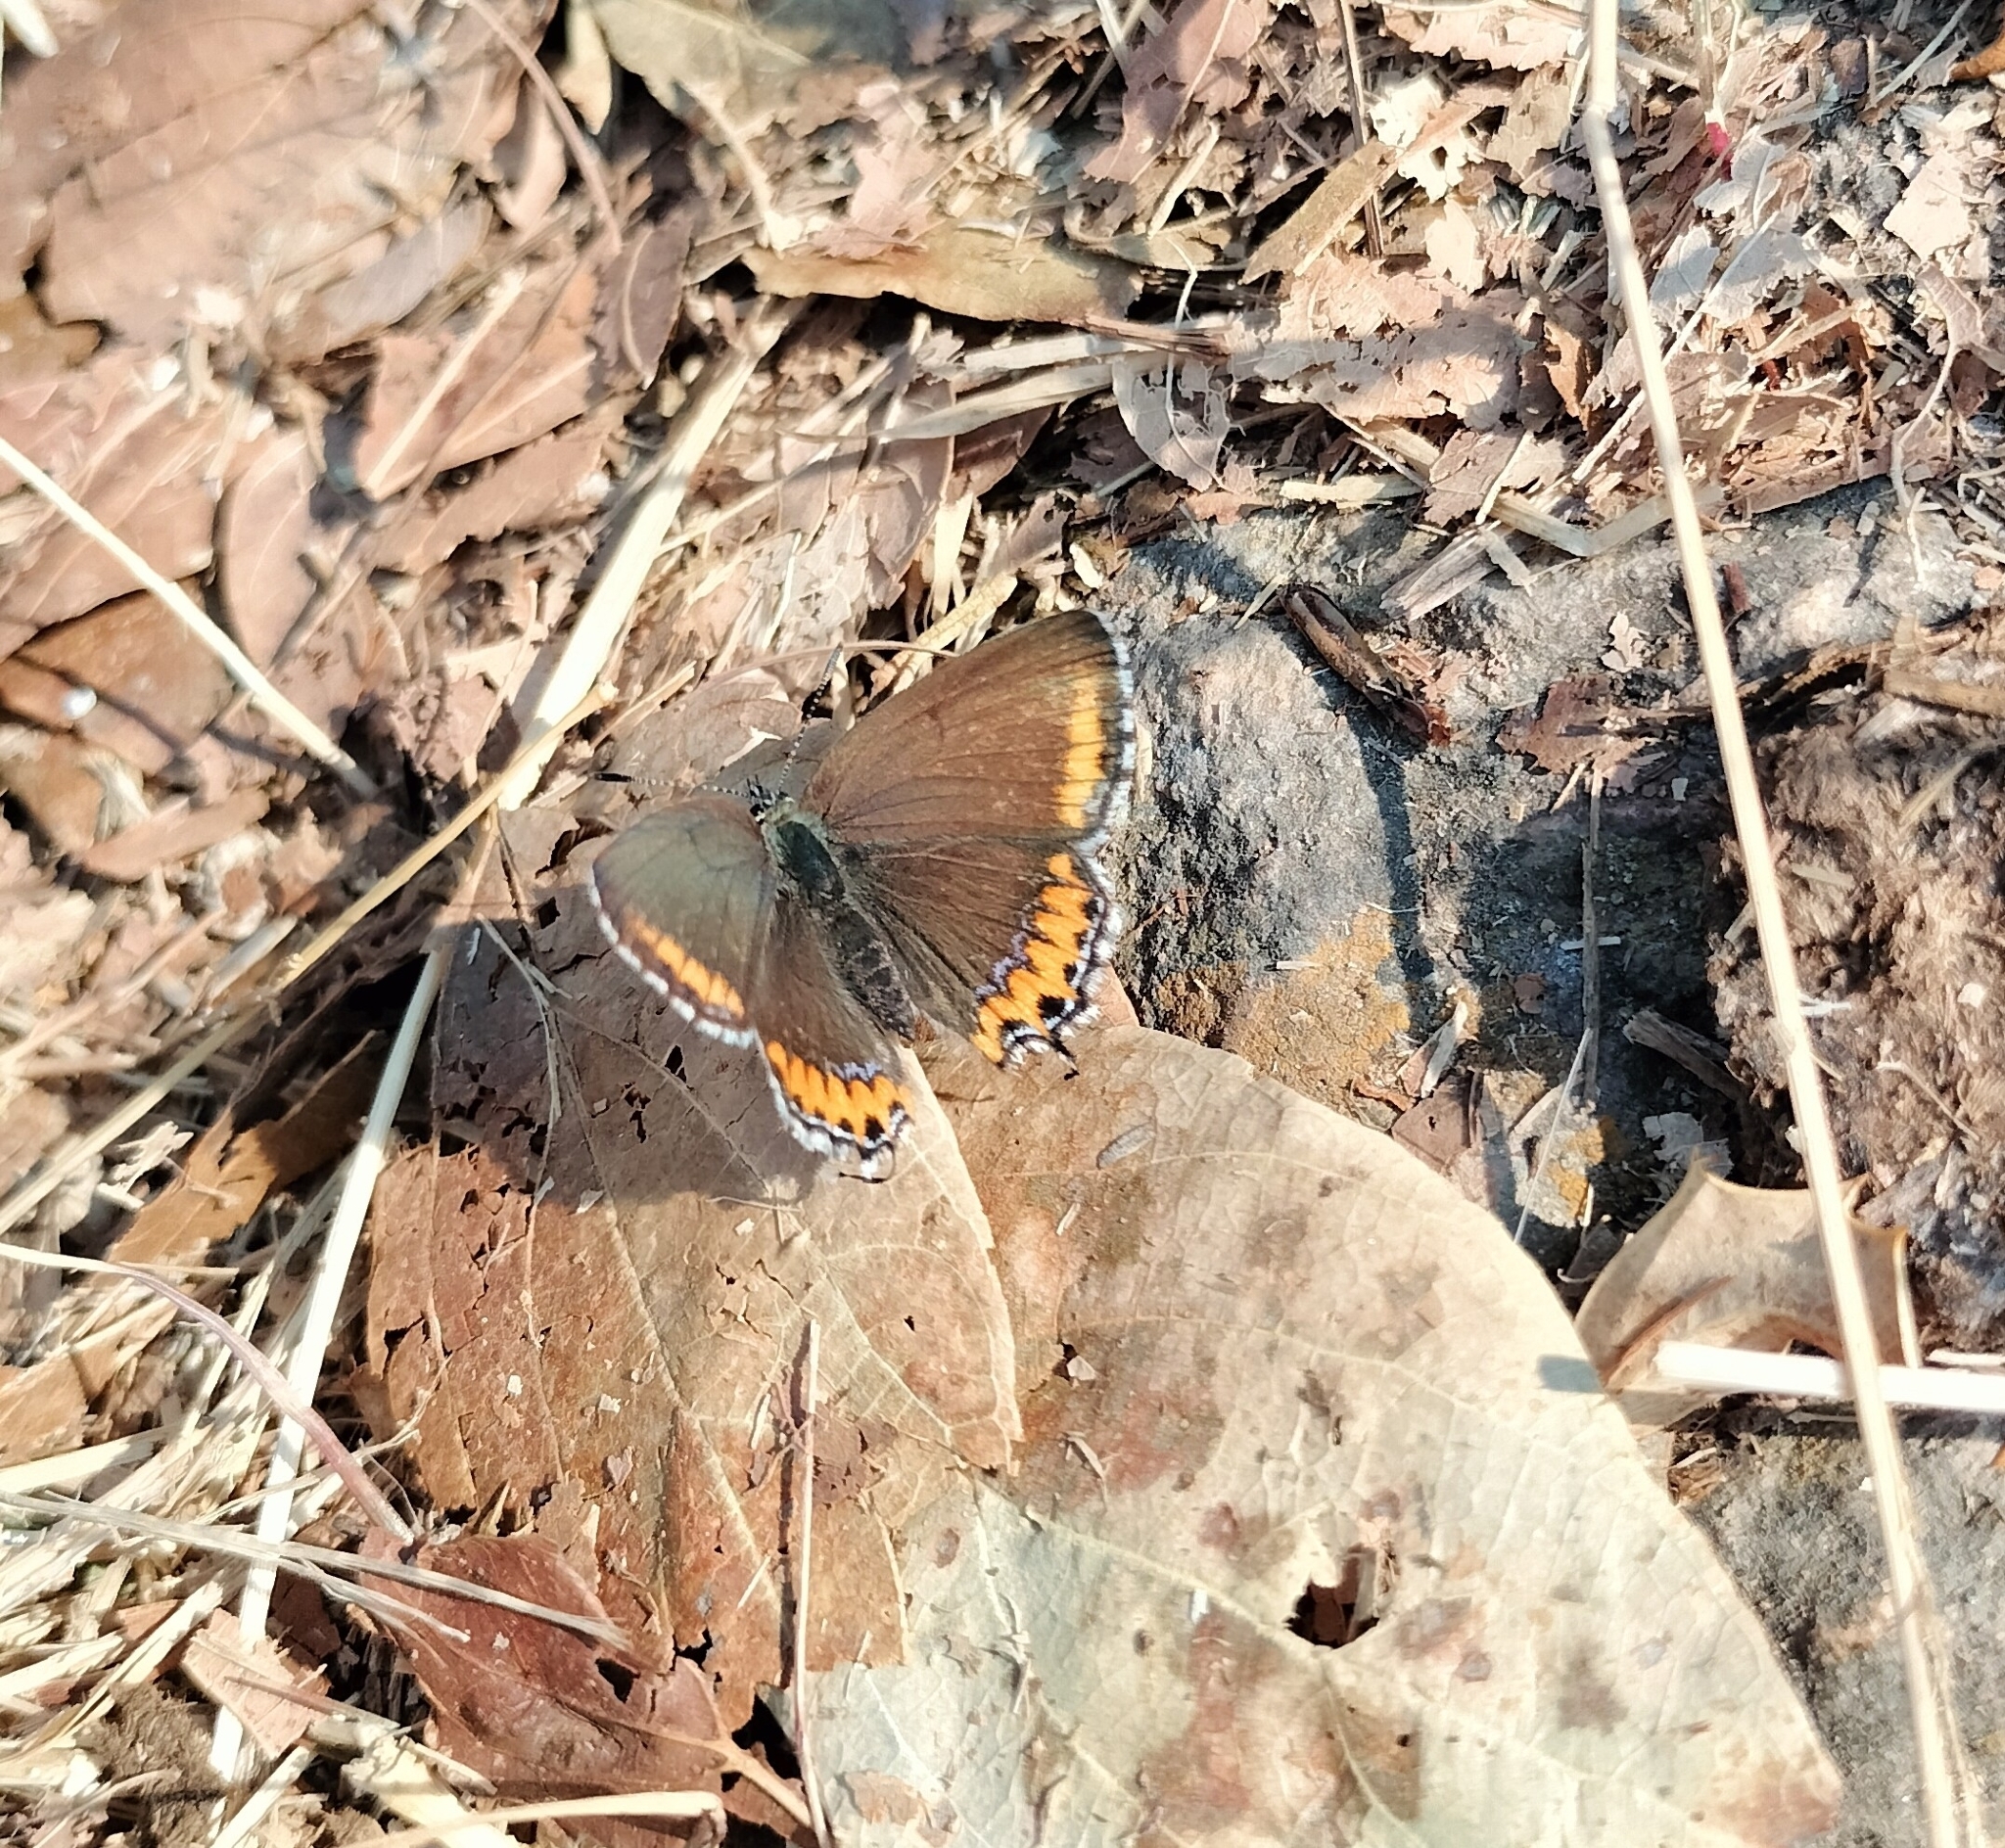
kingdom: Animalia
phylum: Arthropoda
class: Insecta
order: Lepidoptera
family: Lycaenidae
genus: Heliophorus
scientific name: Heliophorus sena
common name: Sorrel sapphire
